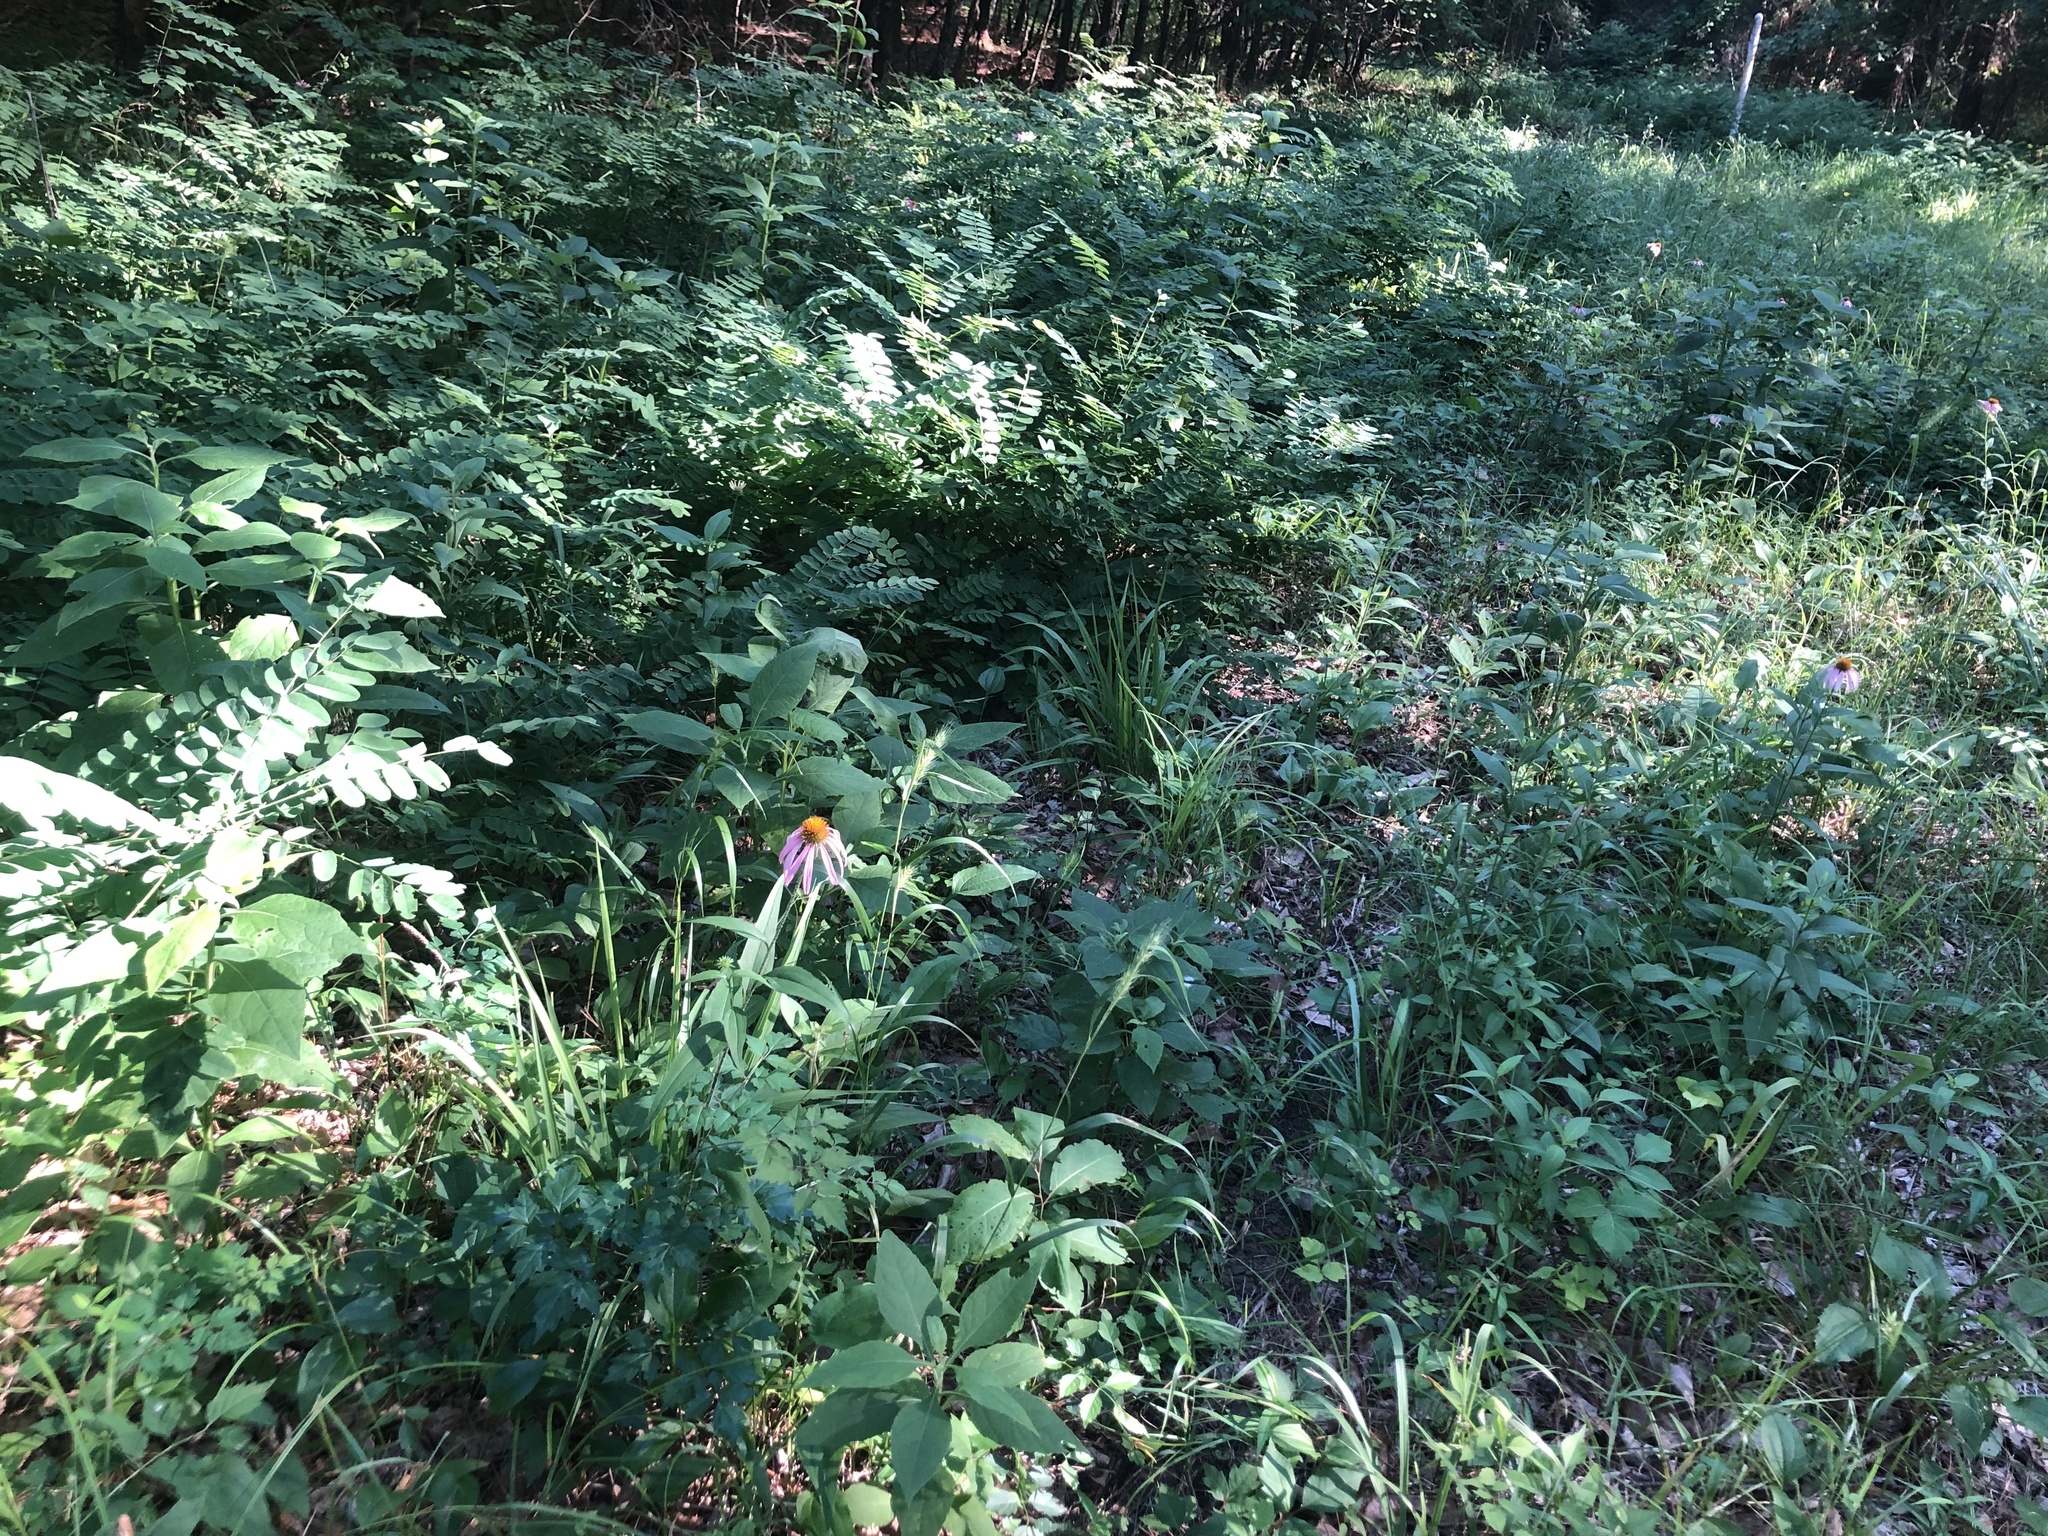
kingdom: Plantae
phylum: Tracheophyta
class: Magnoliopsida
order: Fabales
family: Fabaceae
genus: Amorpha
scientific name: Amorpha fruticosa
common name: False indigo
